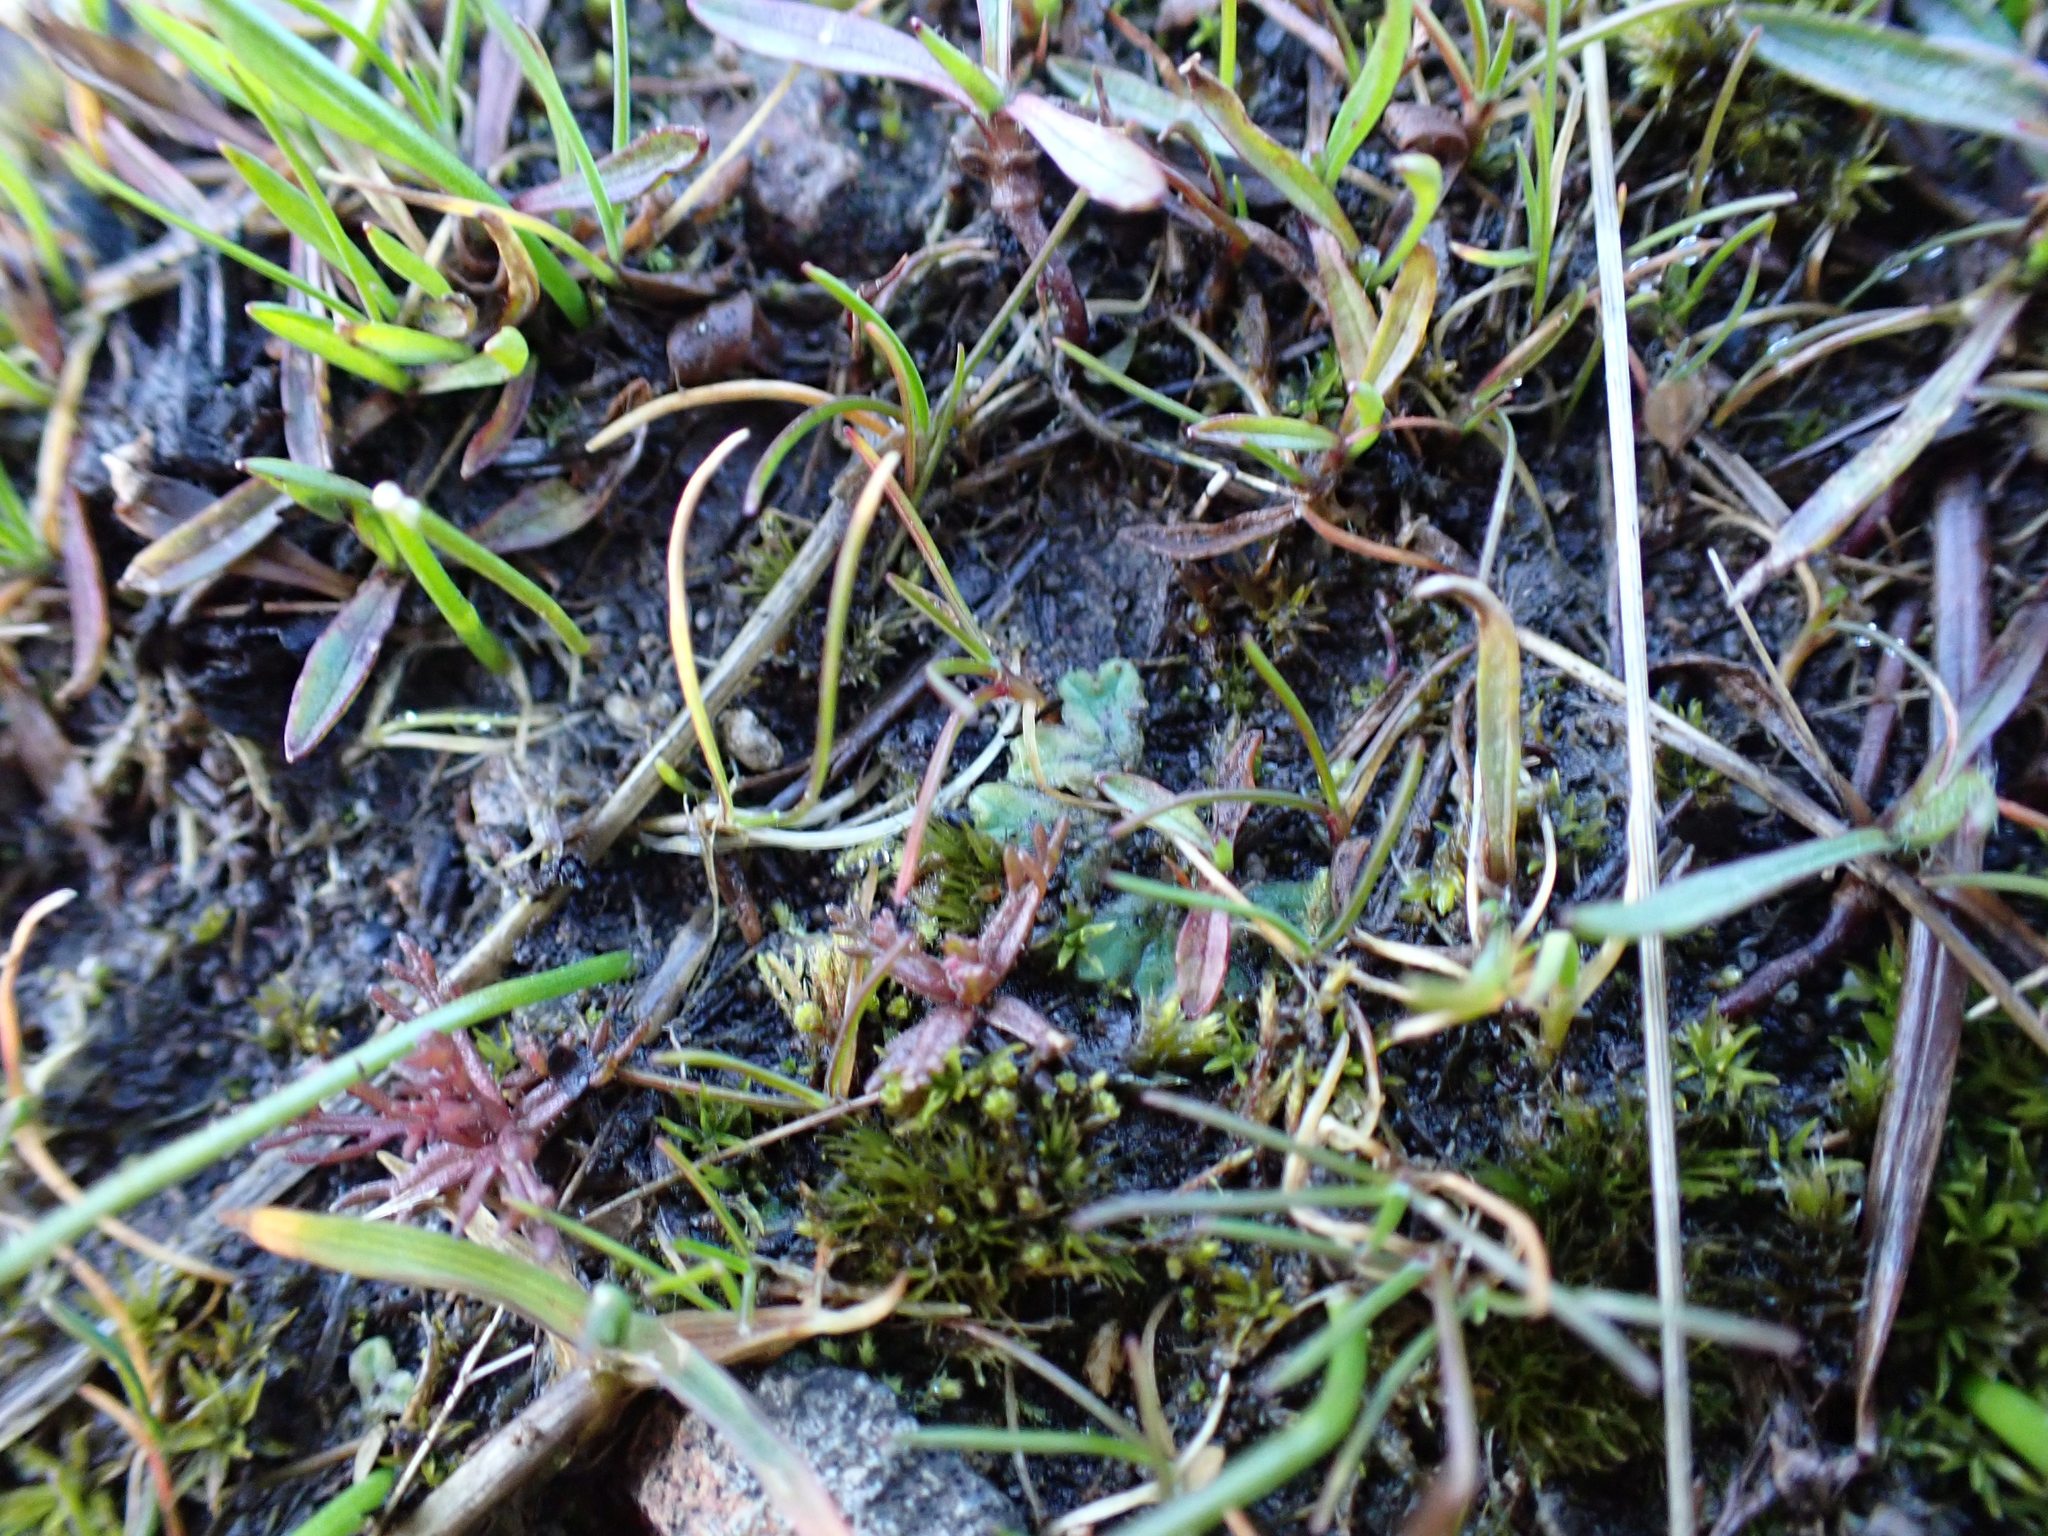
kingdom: Plantae
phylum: Marchantiophyta
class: Marchantiopsida
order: Marchantiales
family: Ricciaceae
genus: Riccia
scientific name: Riccia sorocarpa
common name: Common crystalwort
